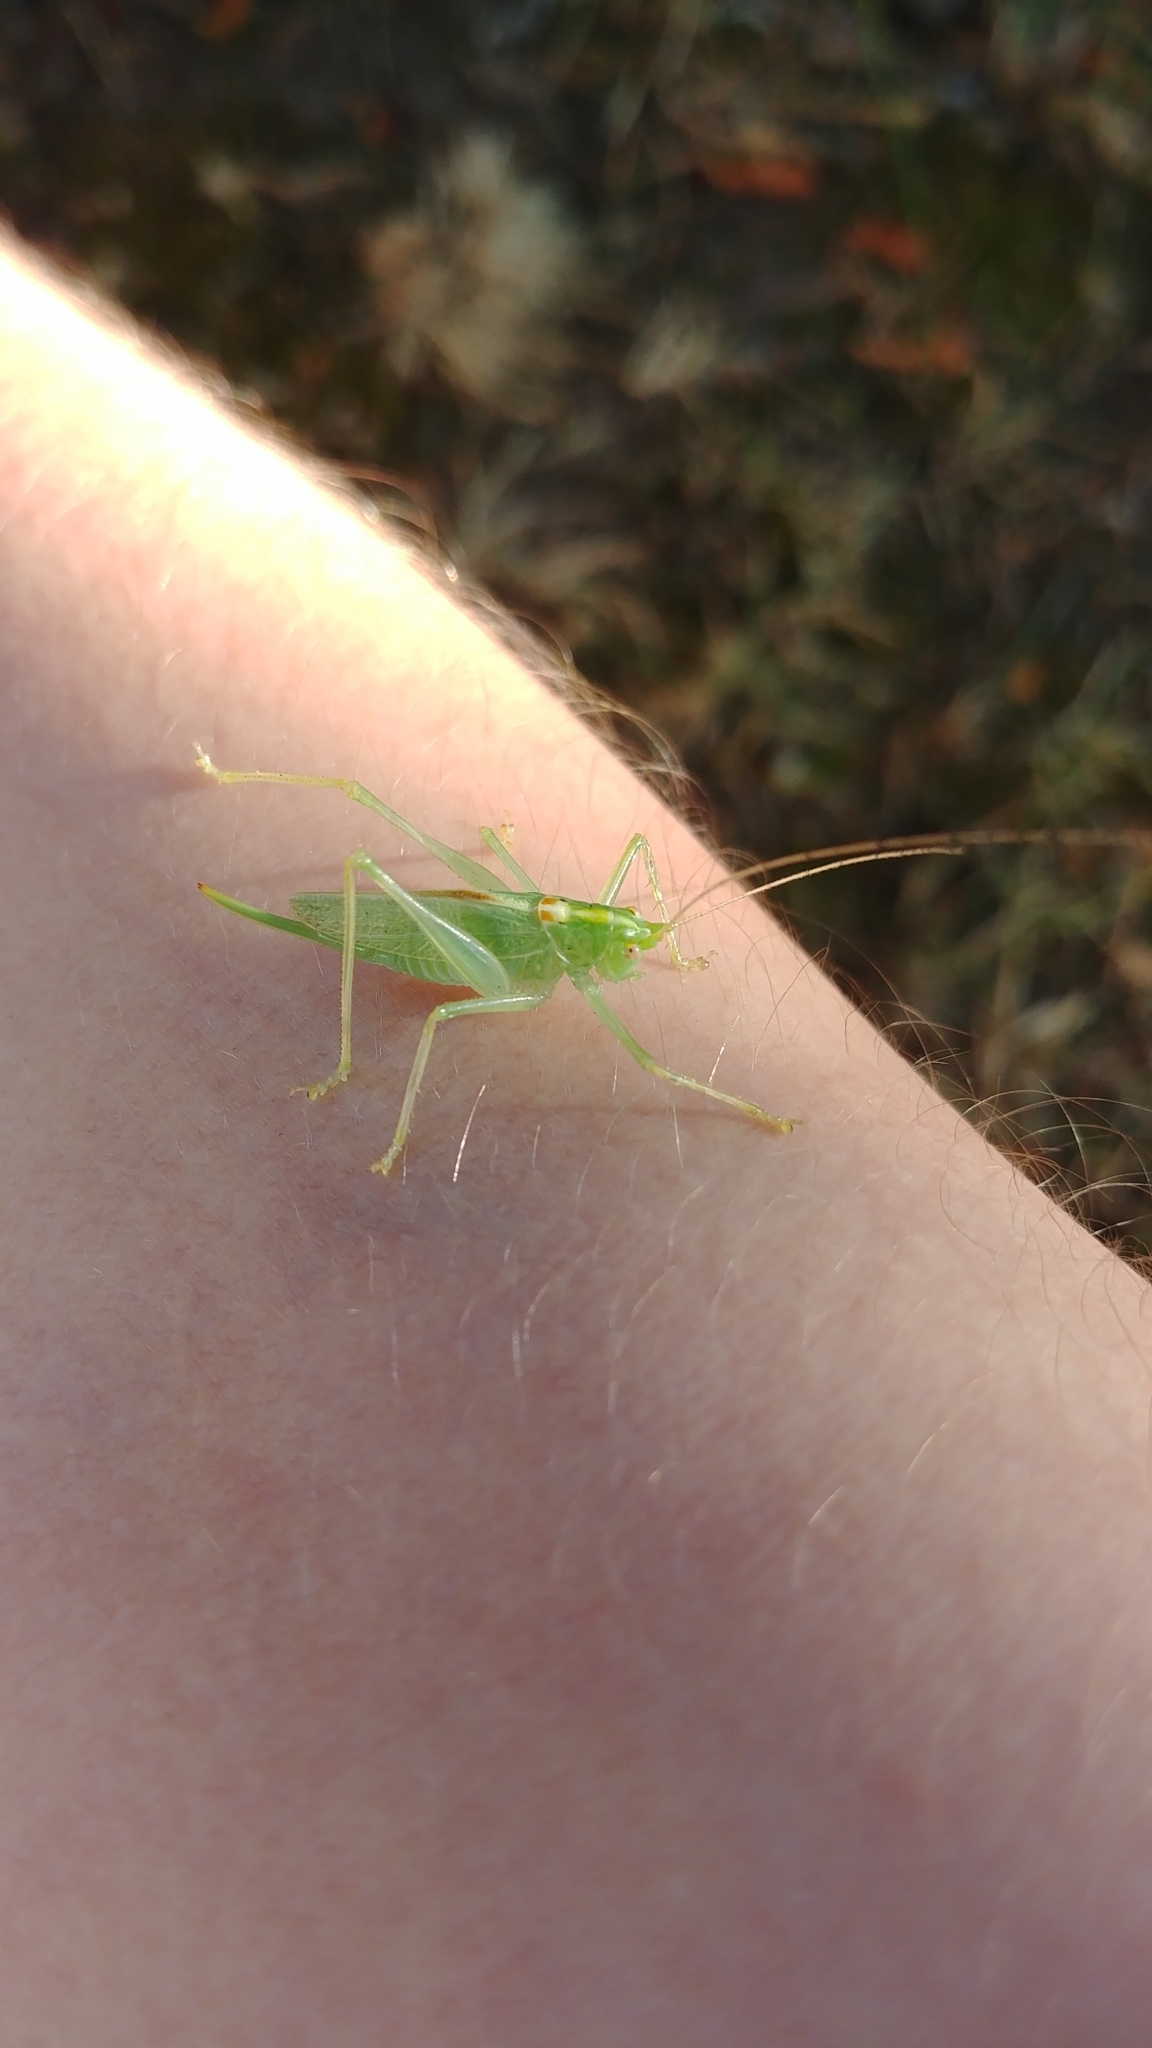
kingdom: Animalia
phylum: Arthropoda
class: Insecta
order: Orthoptera
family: Tettigoniidae
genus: Meconema
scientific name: Meconema thalassinum
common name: Oak bush-cricket
